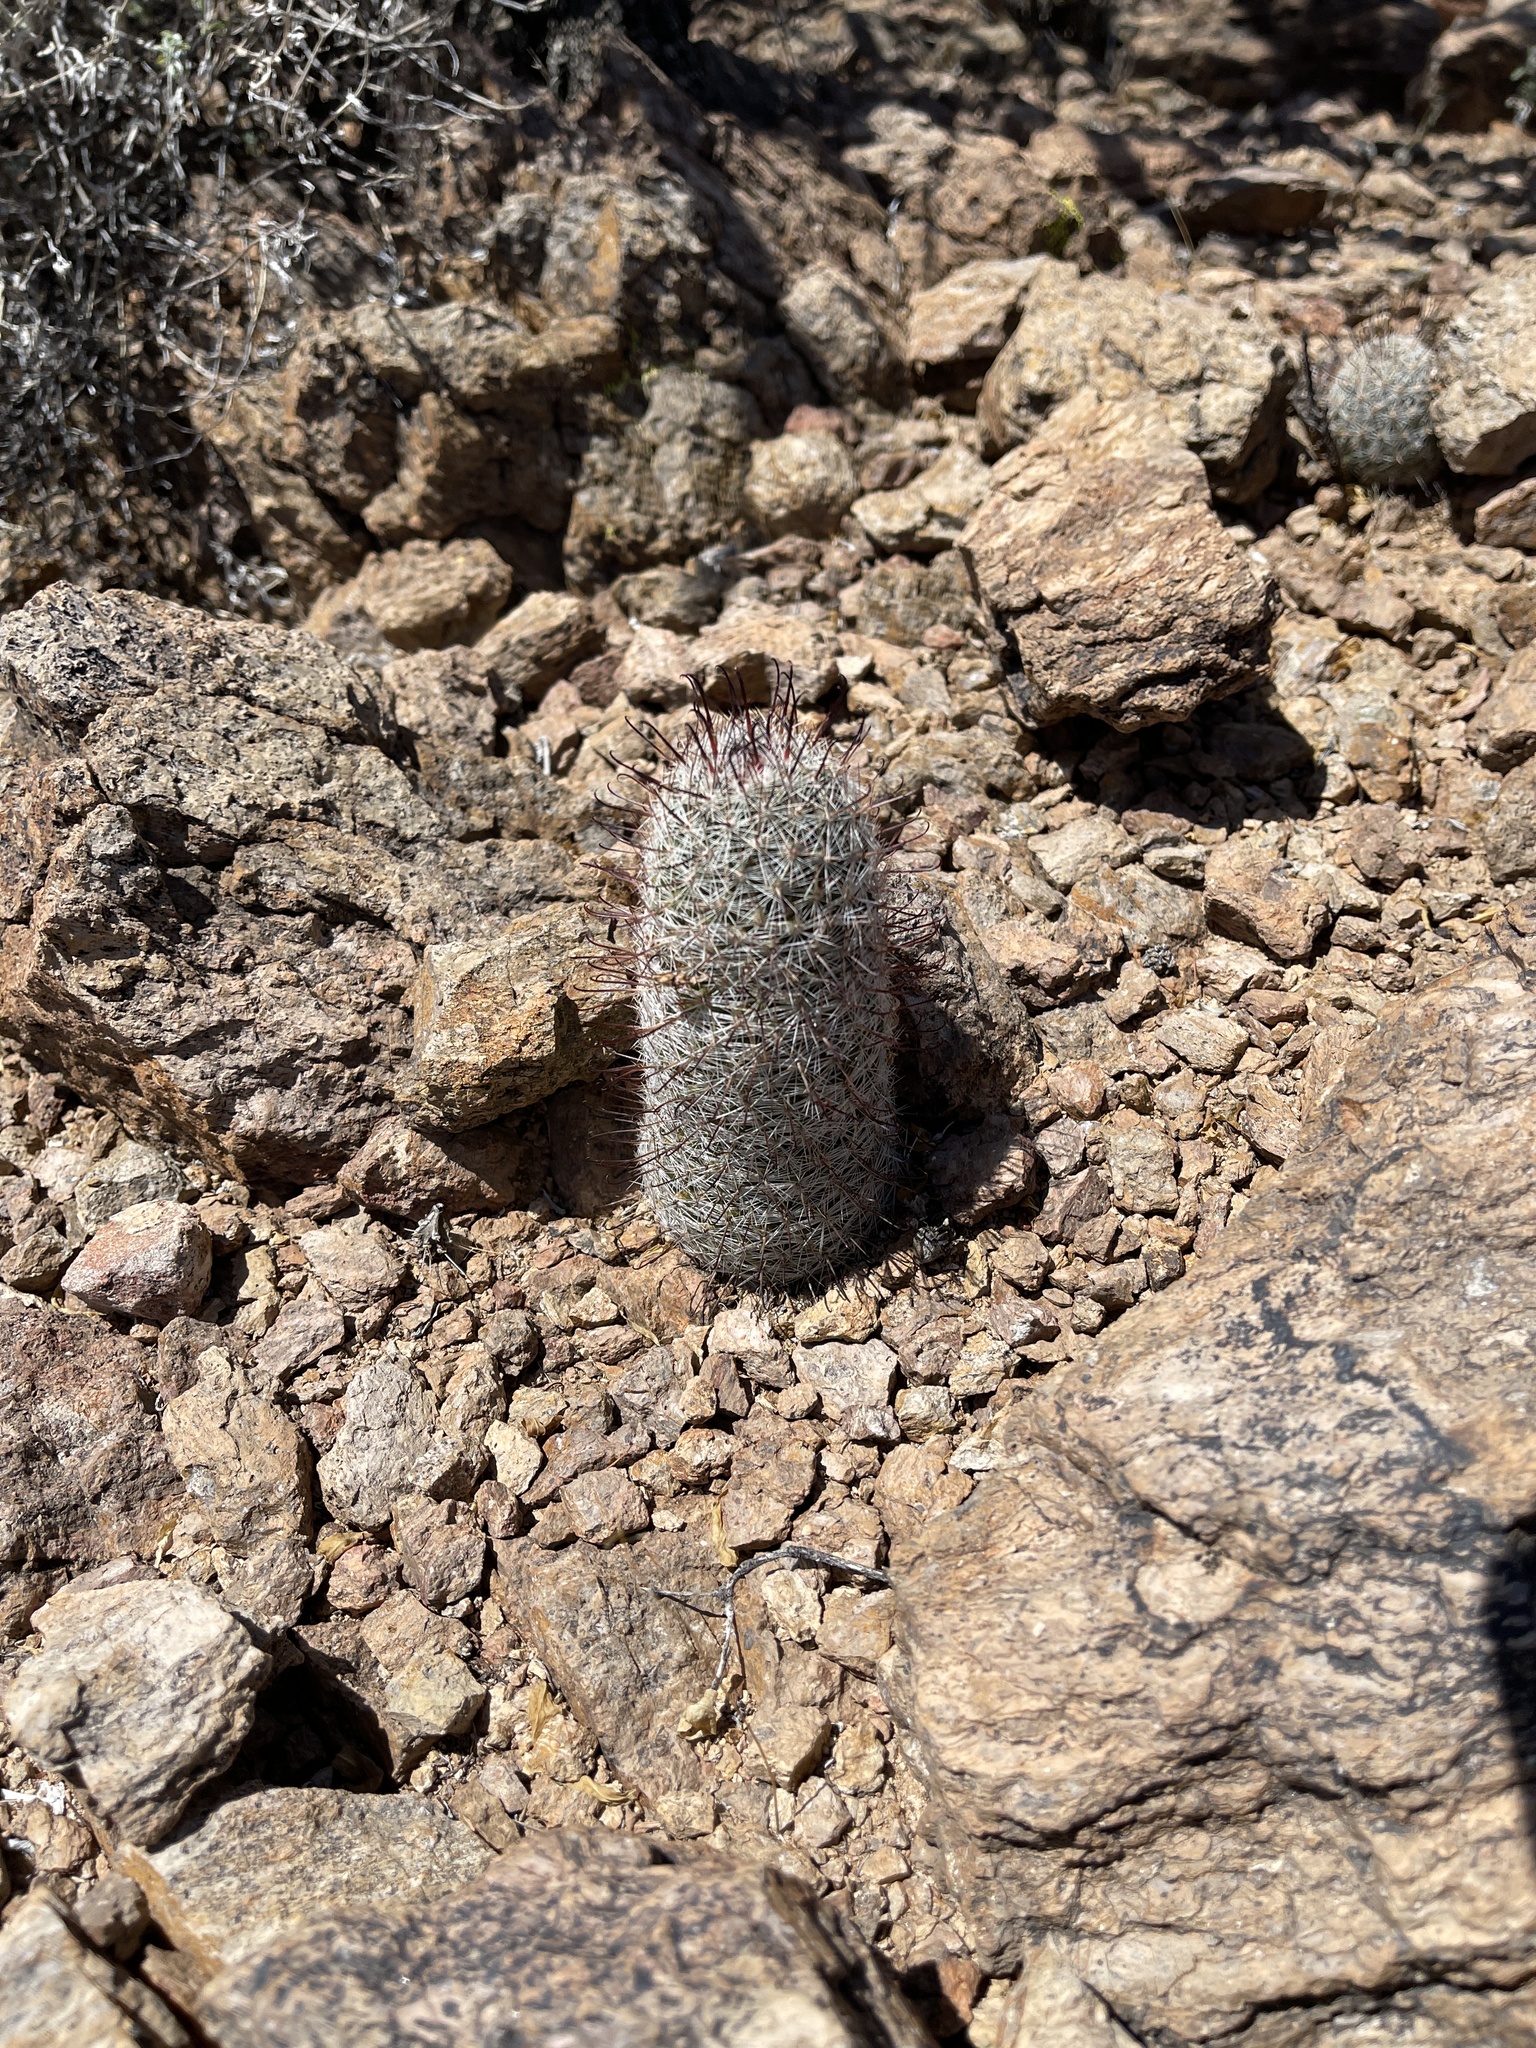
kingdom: Plantae
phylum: Tracheophyta
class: Magnoliopsida
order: Caryophyllales
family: Cactaceae
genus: Cochemiea
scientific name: Cochemiea grahamii
